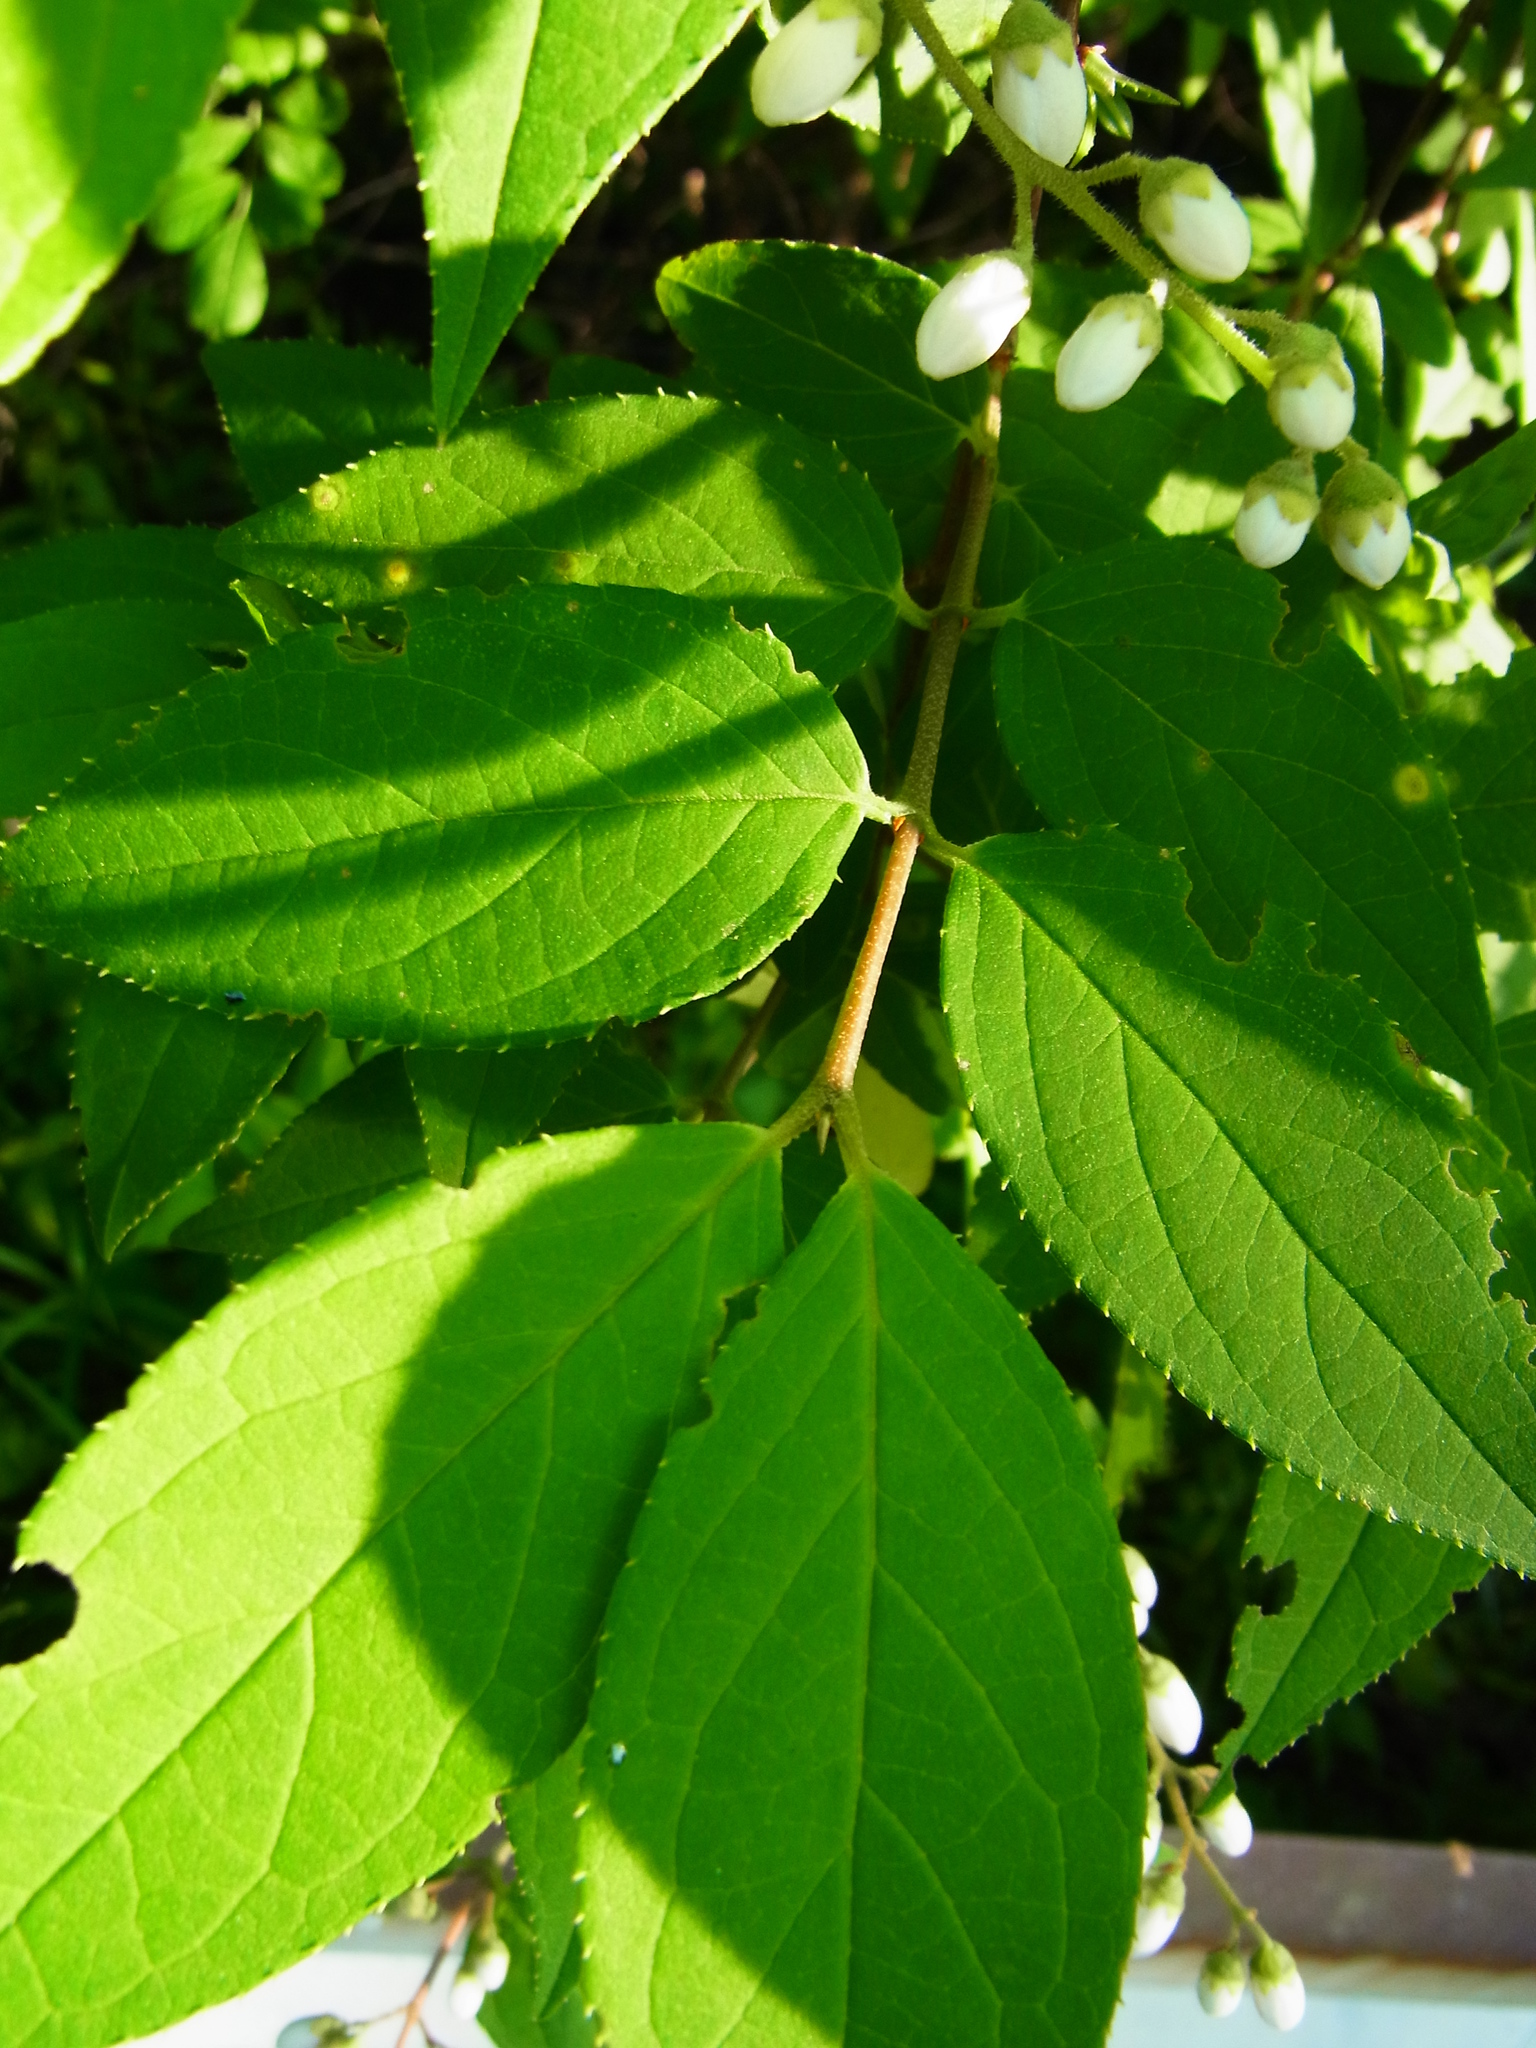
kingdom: Plantae
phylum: Tracheophyta
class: Magnoliopsida
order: Cornales
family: Hydrangeaceae
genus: Deutzia
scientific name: Deutzia gracilis
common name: Slender pride of rochester
